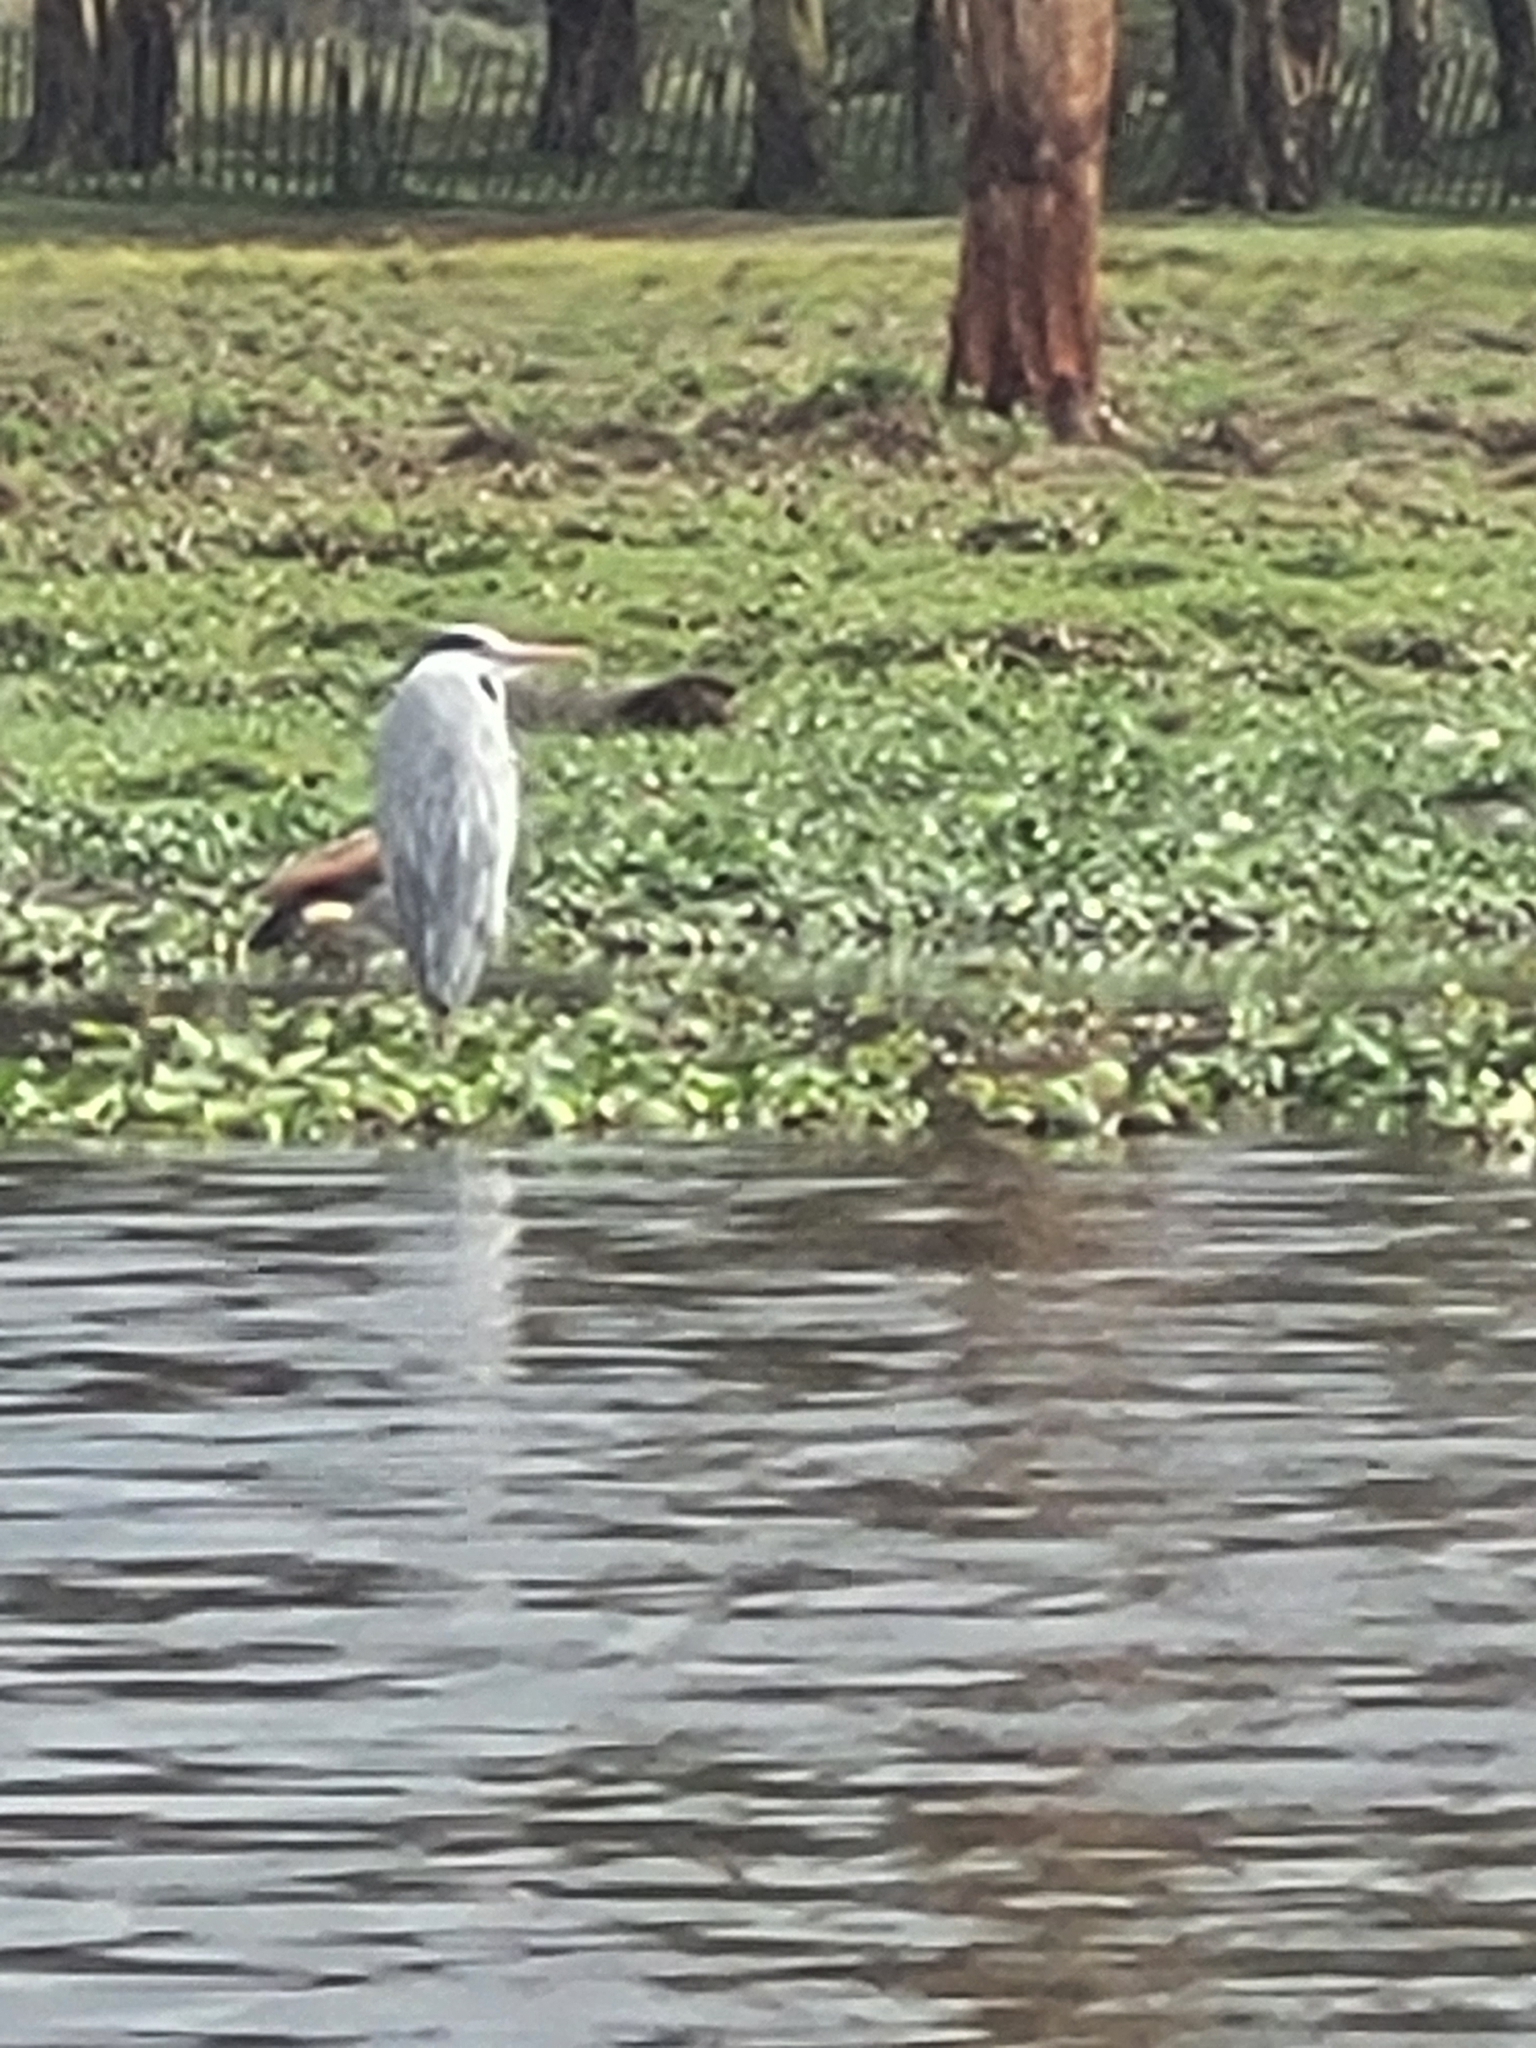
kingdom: Animalia
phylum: Chordata
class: Aves
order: Pelecaniformes
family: Ardeidae
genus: Ardea
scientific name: Ardea cinerea
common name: Grey heron
